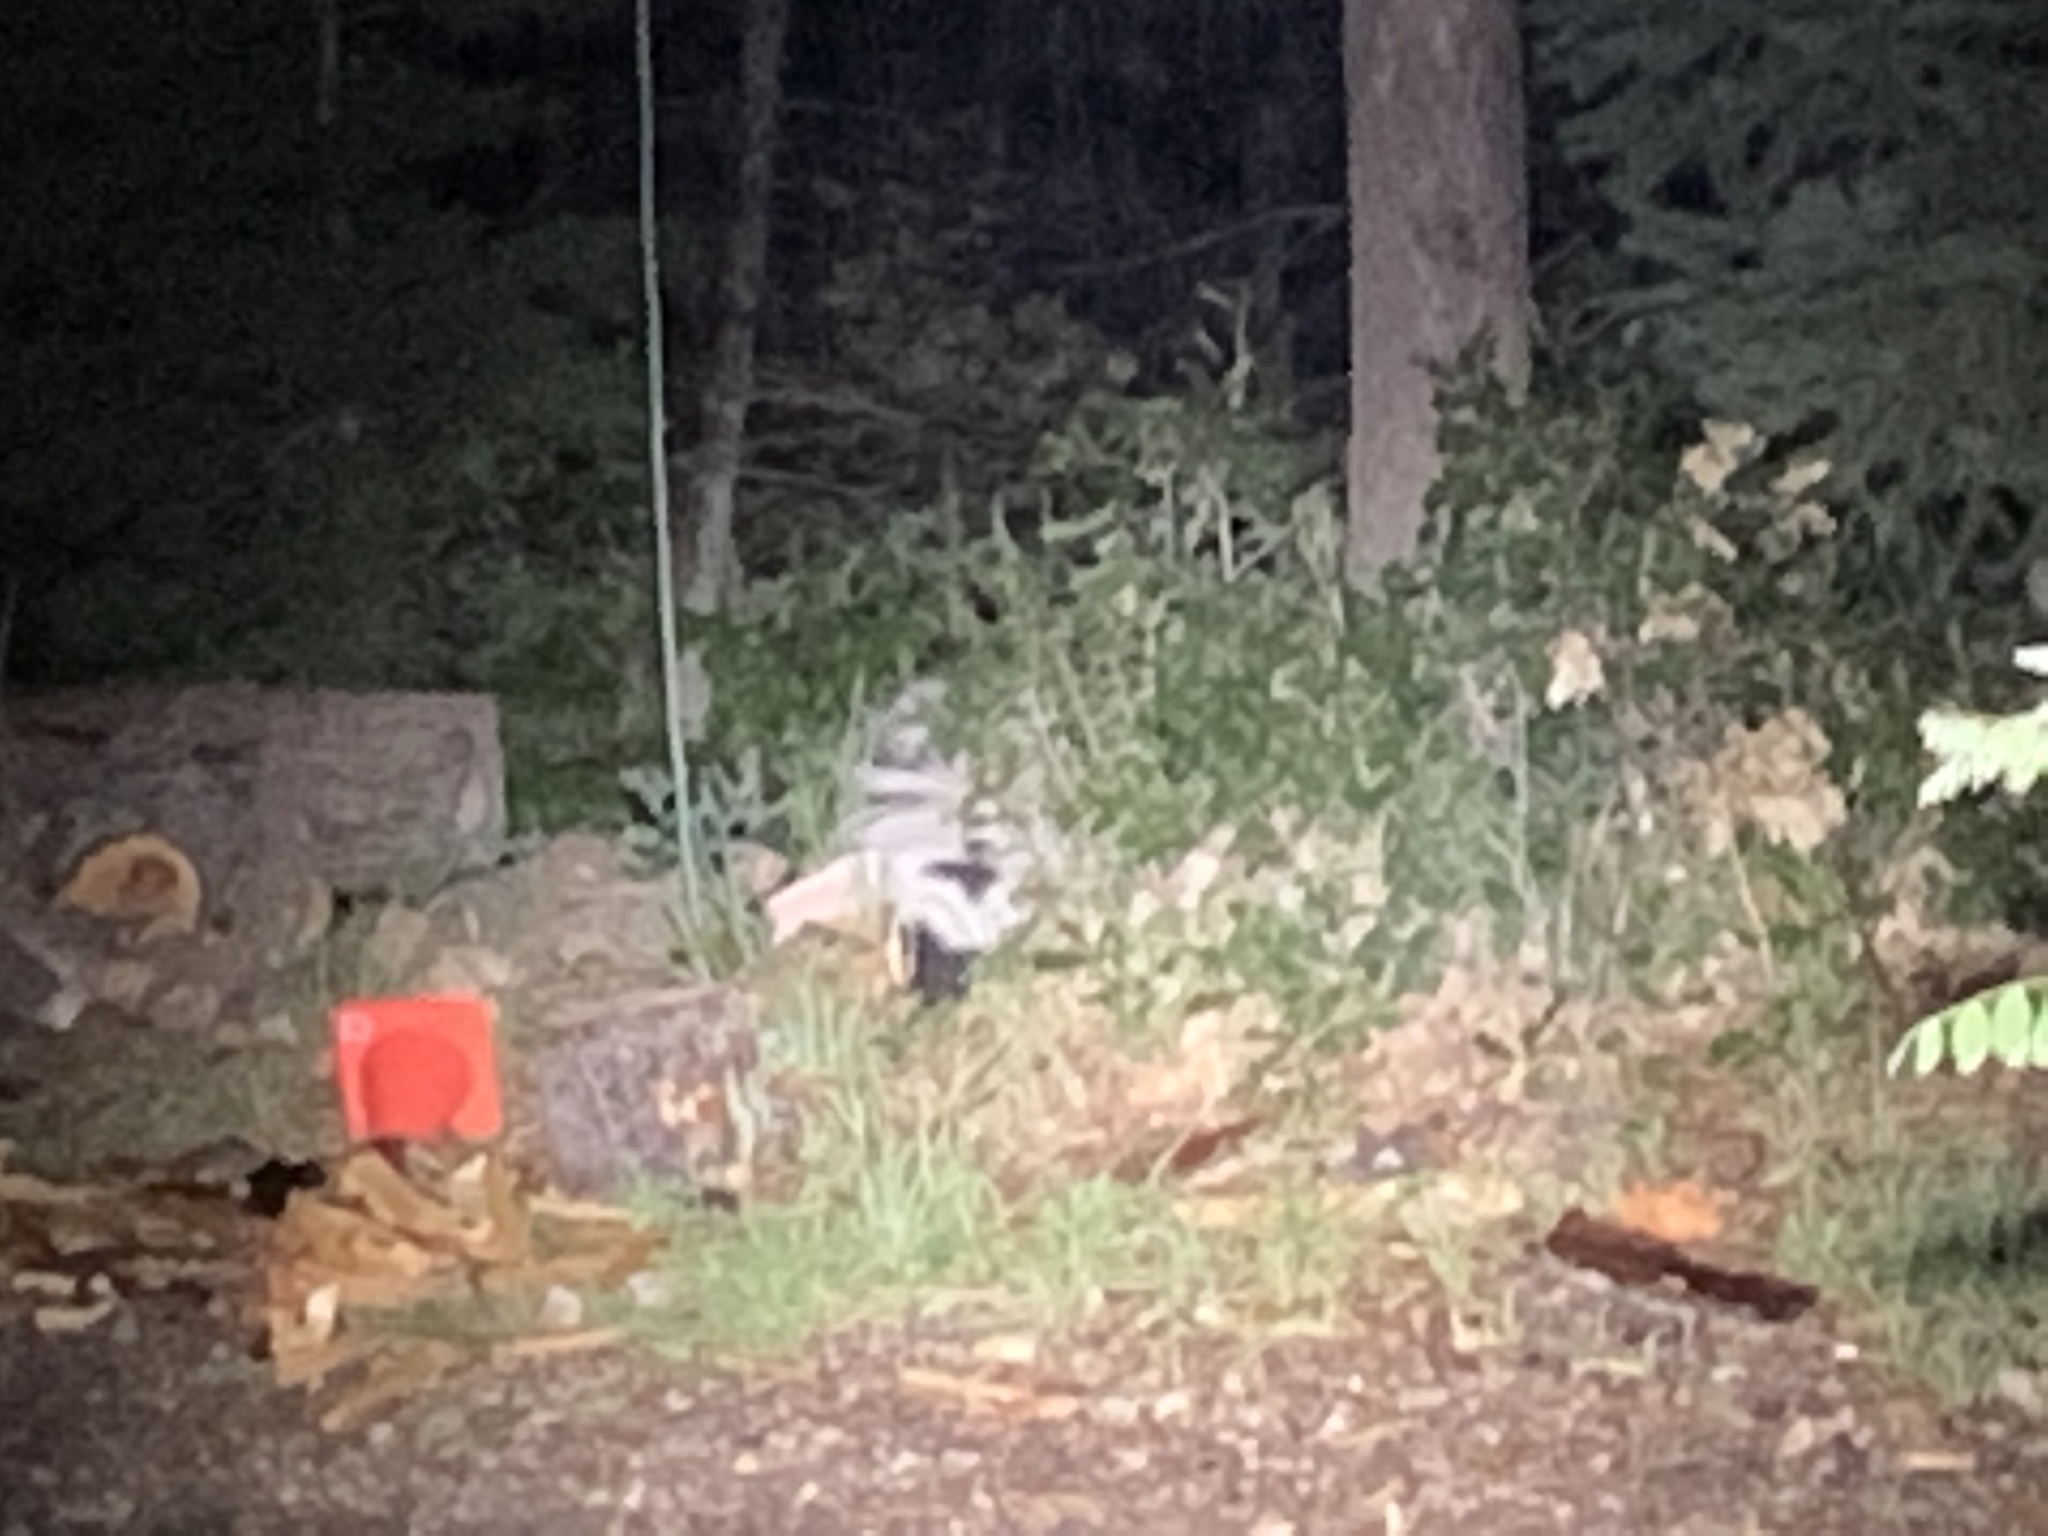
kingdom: Animalia
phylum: Chordata
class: Mammalia
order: Carnivora
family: Mephitidae
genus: Mephitis
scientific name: Mephitis mephitis
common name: Striped skunk
